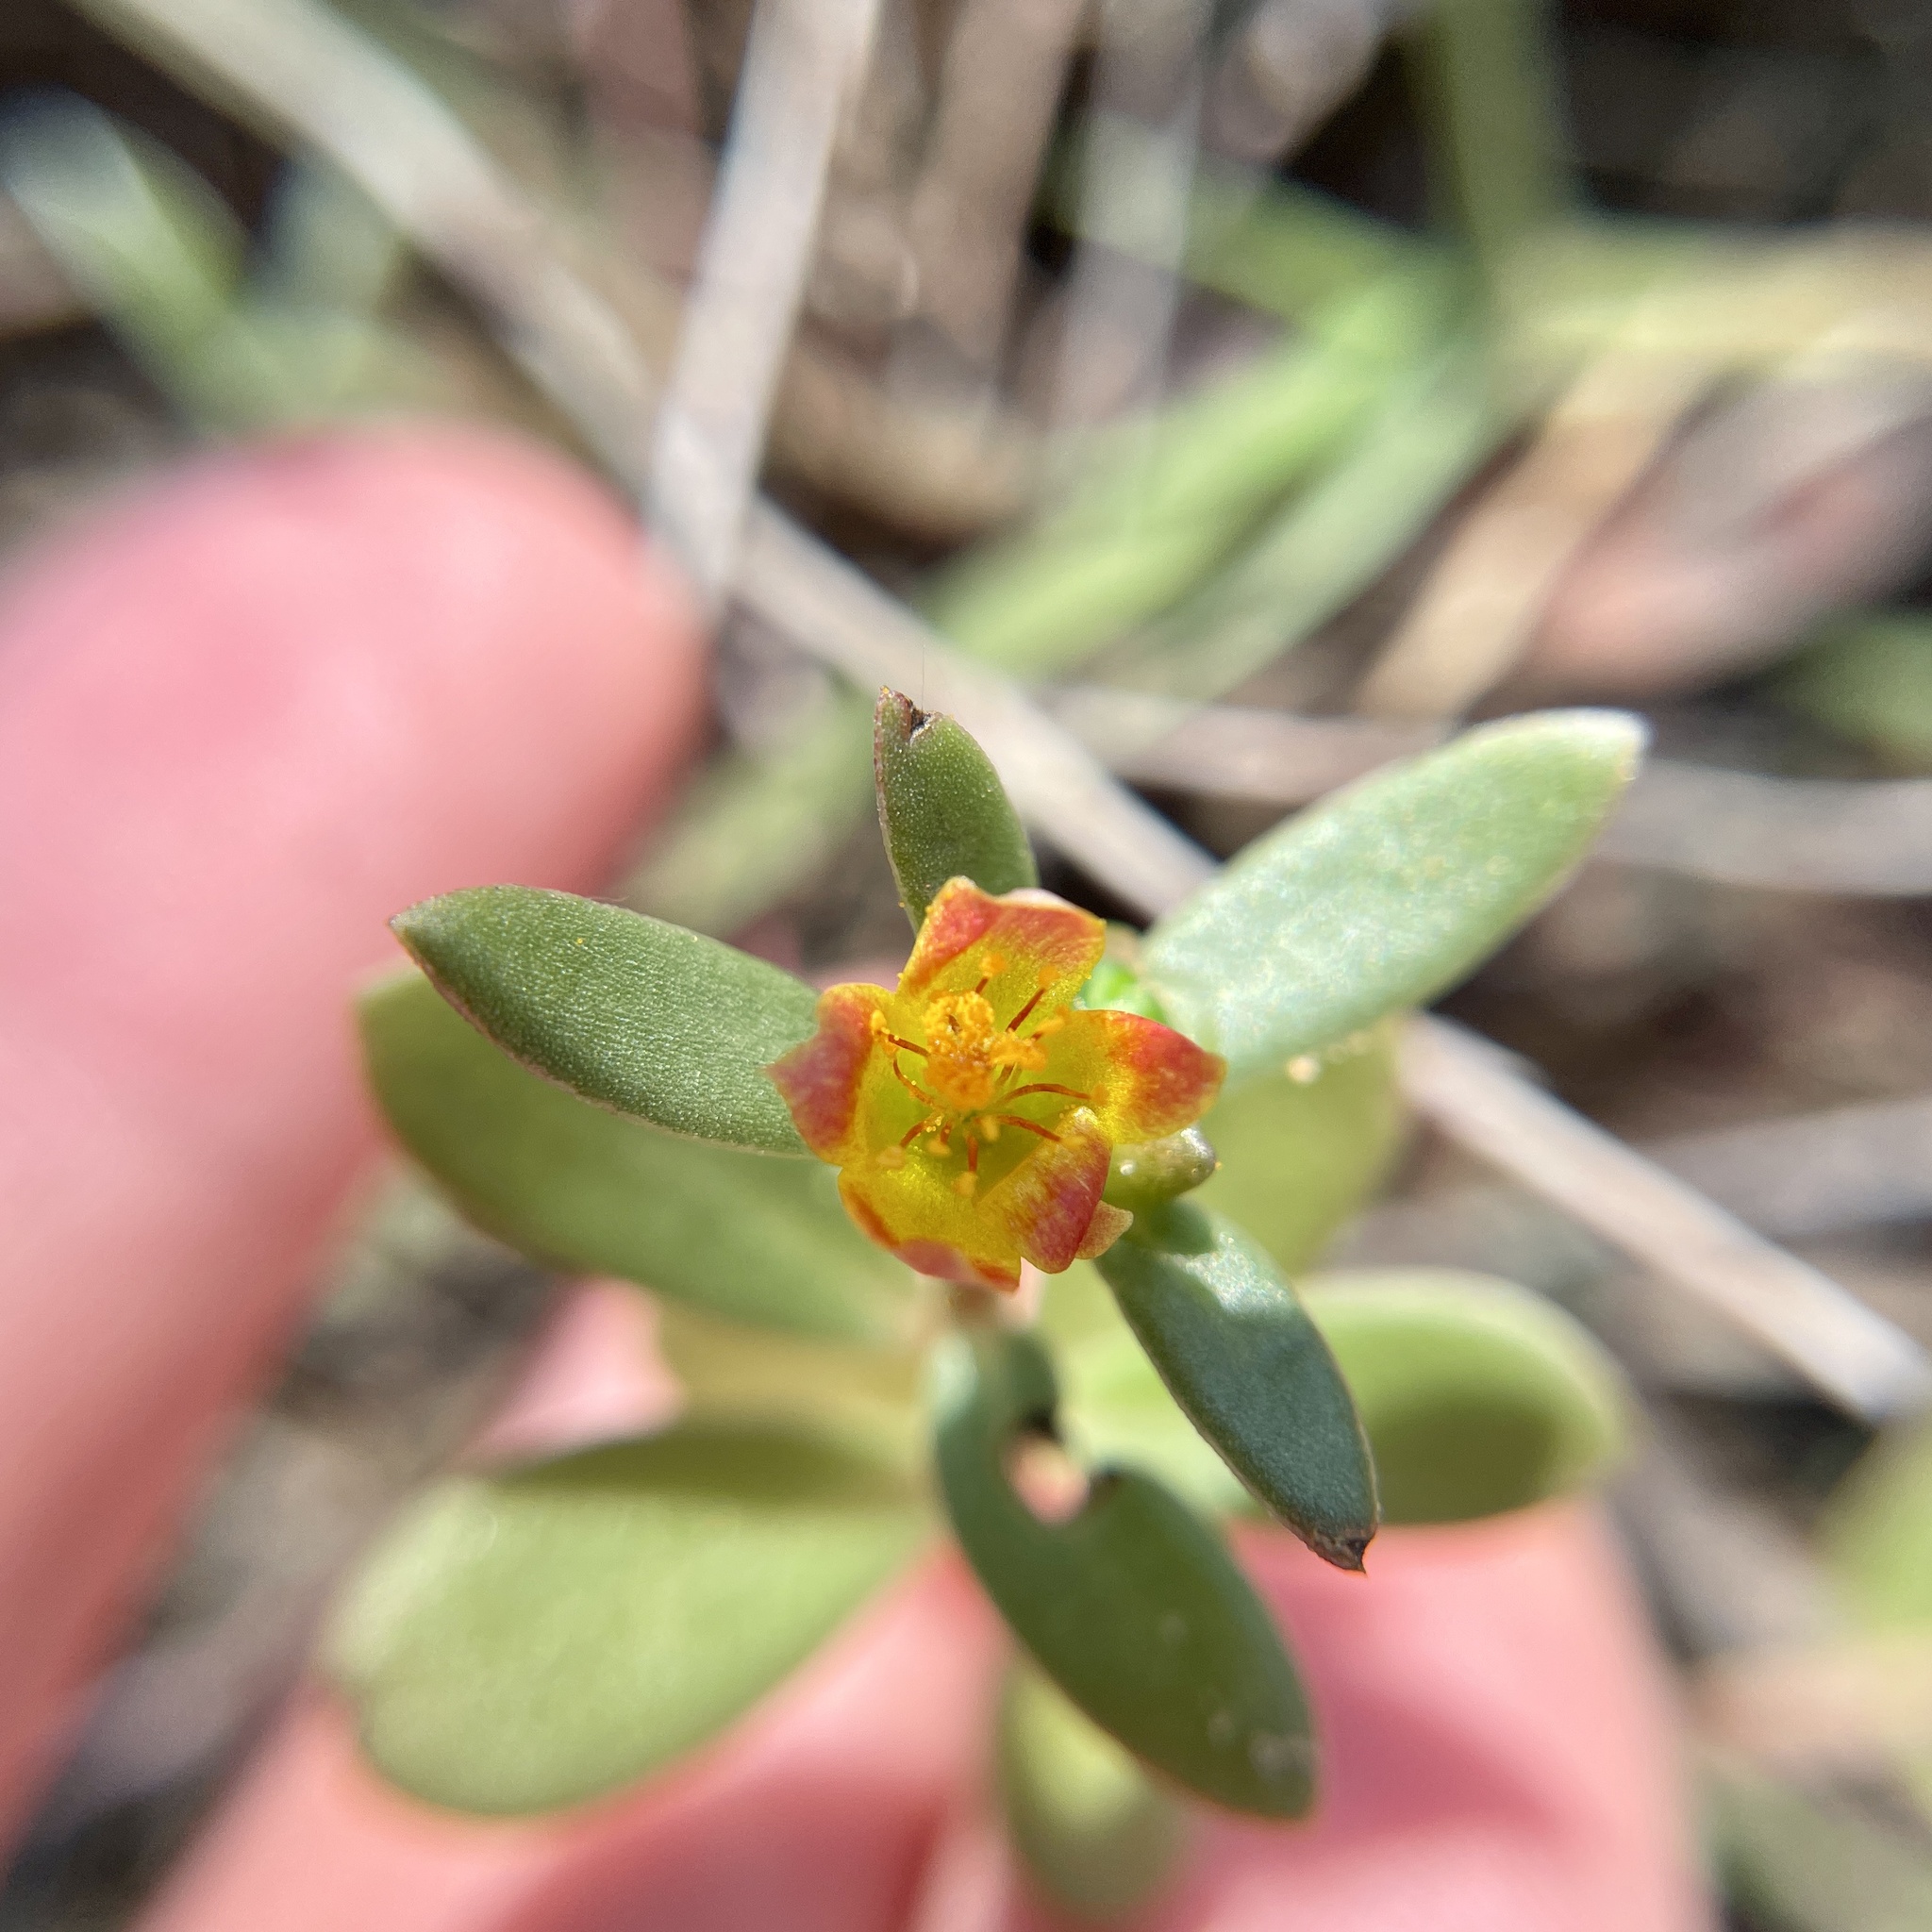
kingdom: Plantae
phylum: Tracheophyta
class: Magnoliopsida
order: Caryophyllales
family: Portulacaceae
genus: Portulaca
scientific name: Portulaca umbraticola
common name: Wingpod purslane
